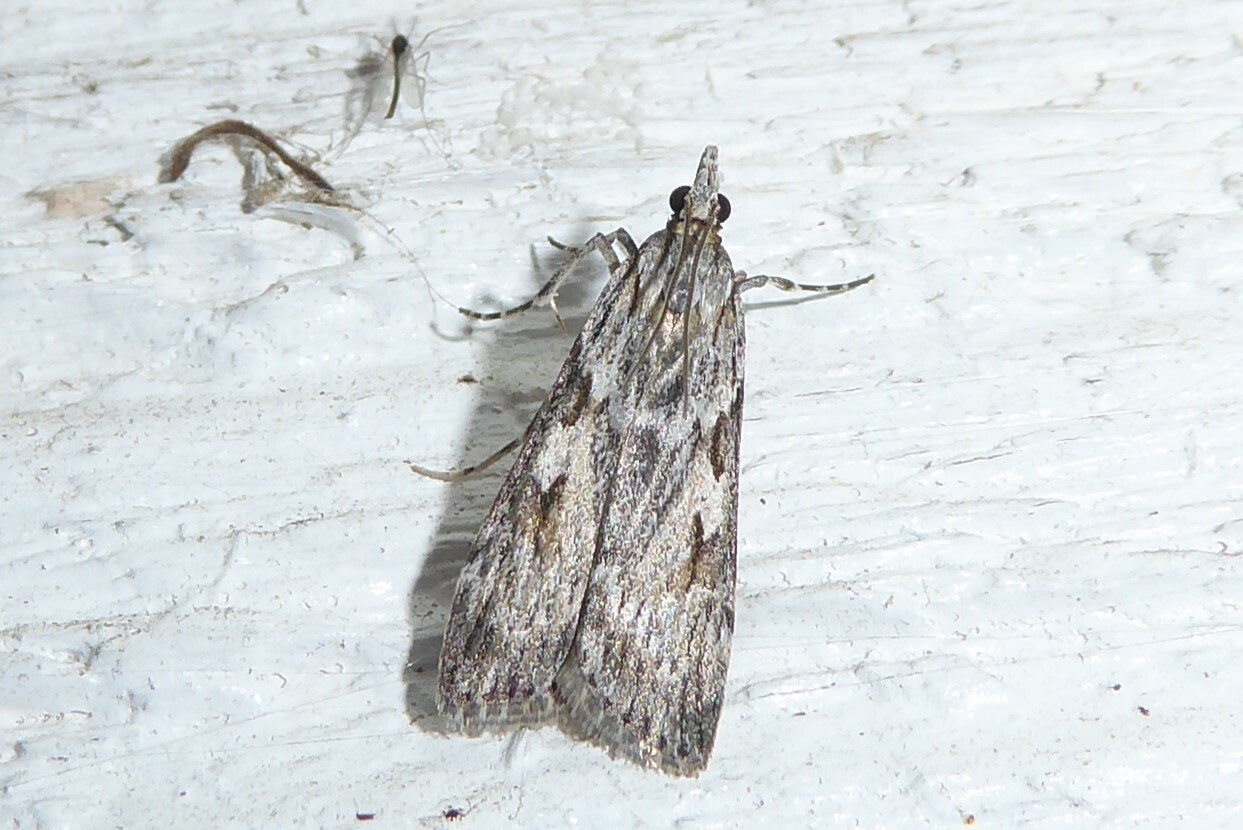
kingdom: Animalia
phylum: Arthropoda
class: Insecta
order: Lepidoptera
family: Crambidae
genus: Scoparia
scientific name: Scoparia halopis
